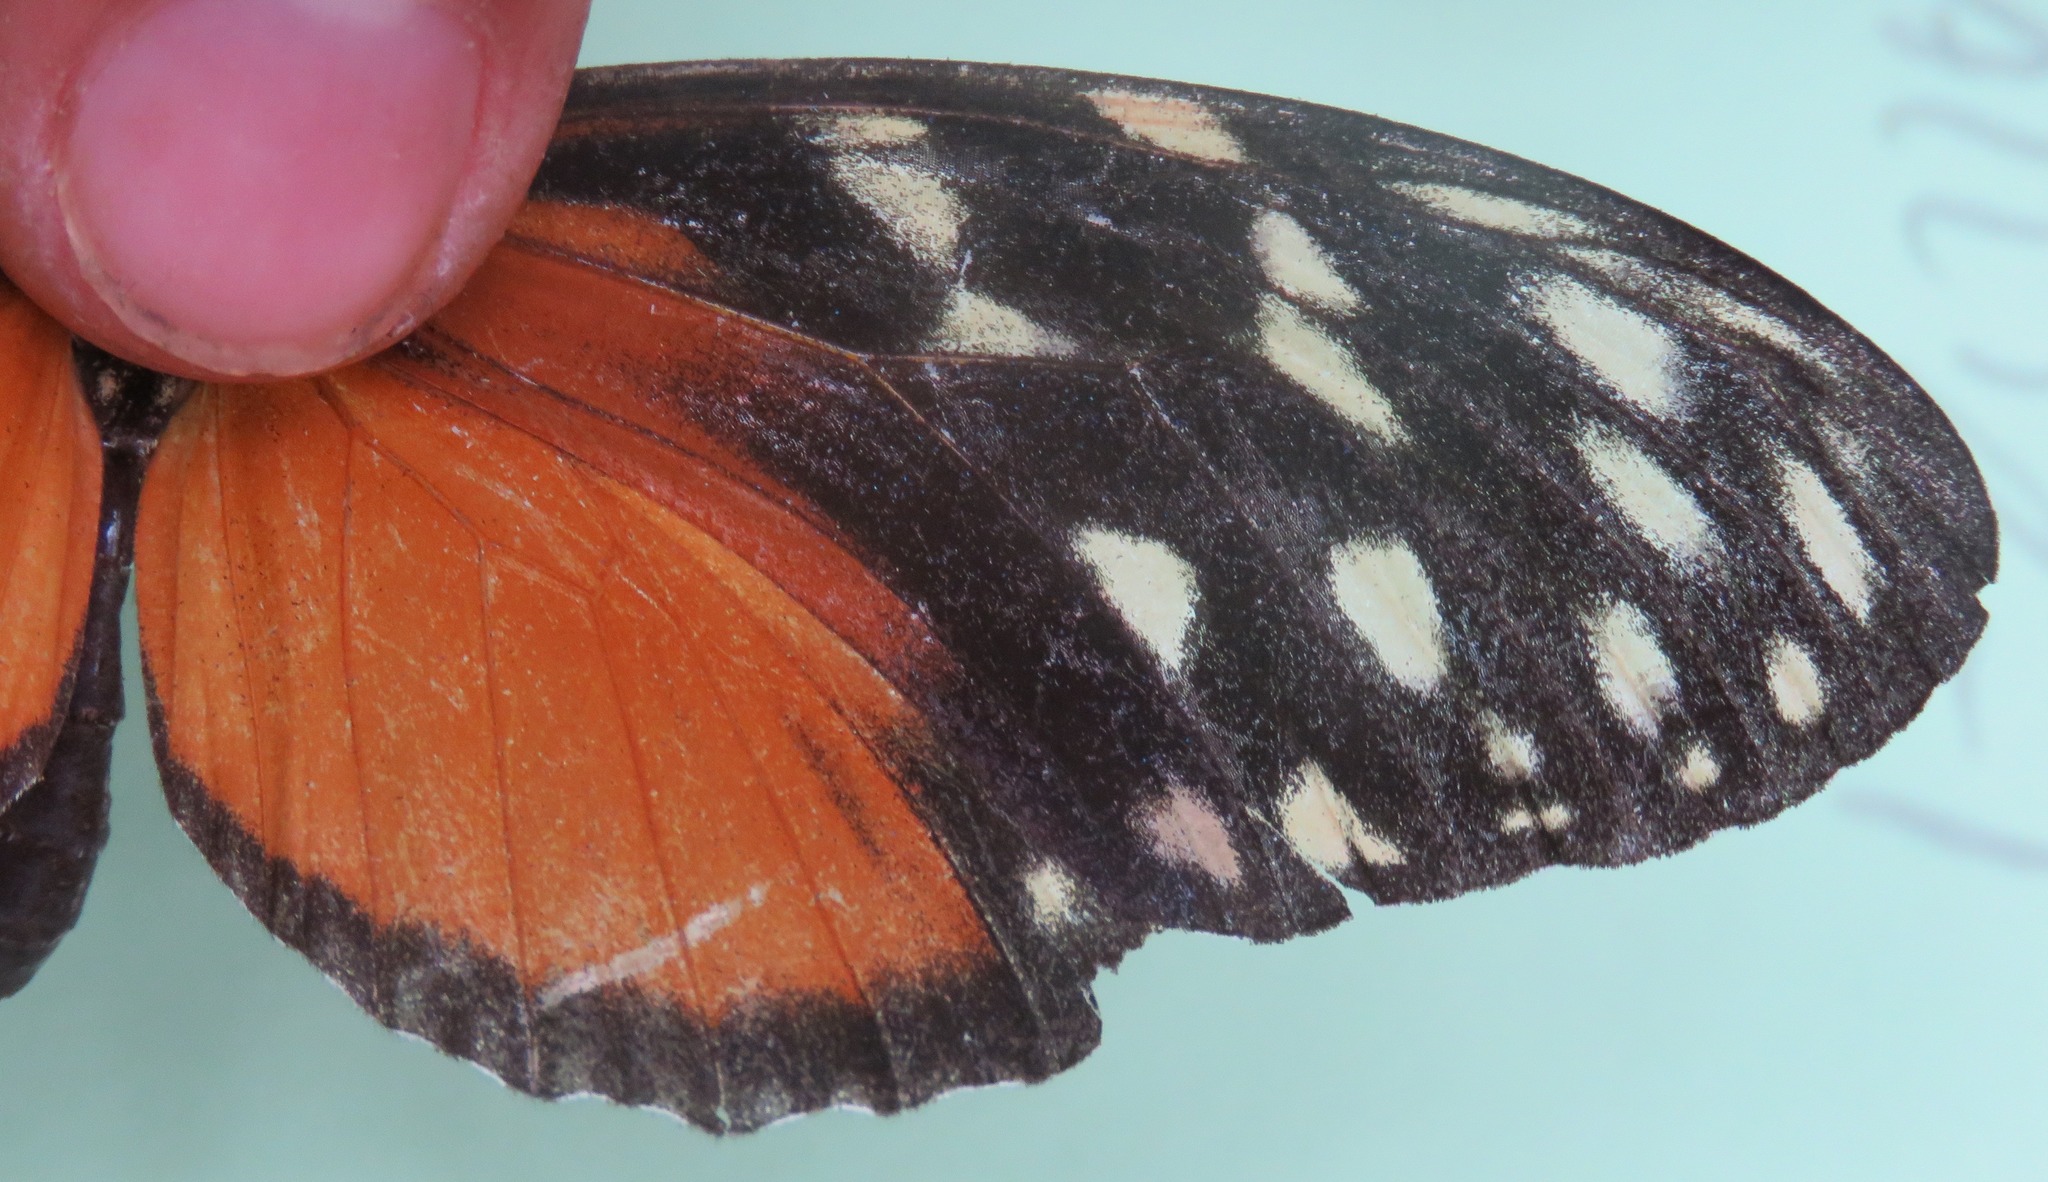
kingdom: Animalia
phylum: Arthropoda
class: Insecta
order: Lepidoptera
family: Nymphalidae
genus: Heliconius
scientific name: Heliconius hecale
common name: Tiger longwing
